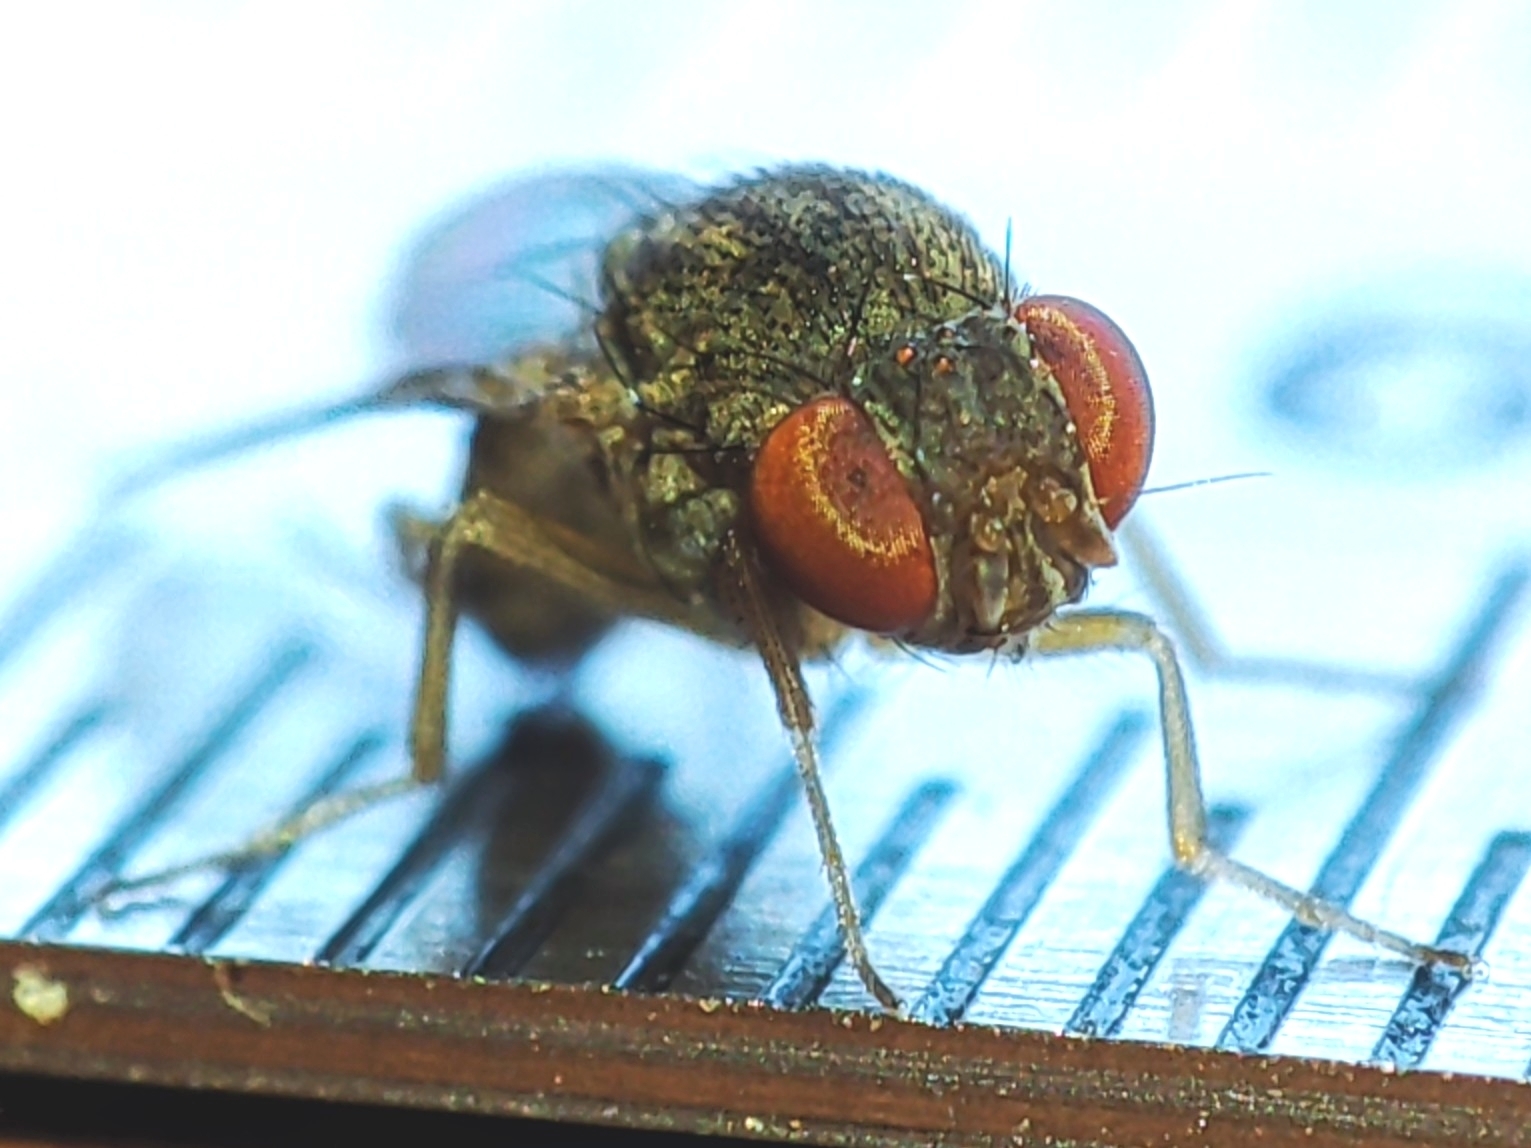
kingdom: Animalia
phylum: Arthropoda
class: Insecta
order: Diptera
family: Drosophilidae
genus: Gitona
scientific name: Gitona distigma
